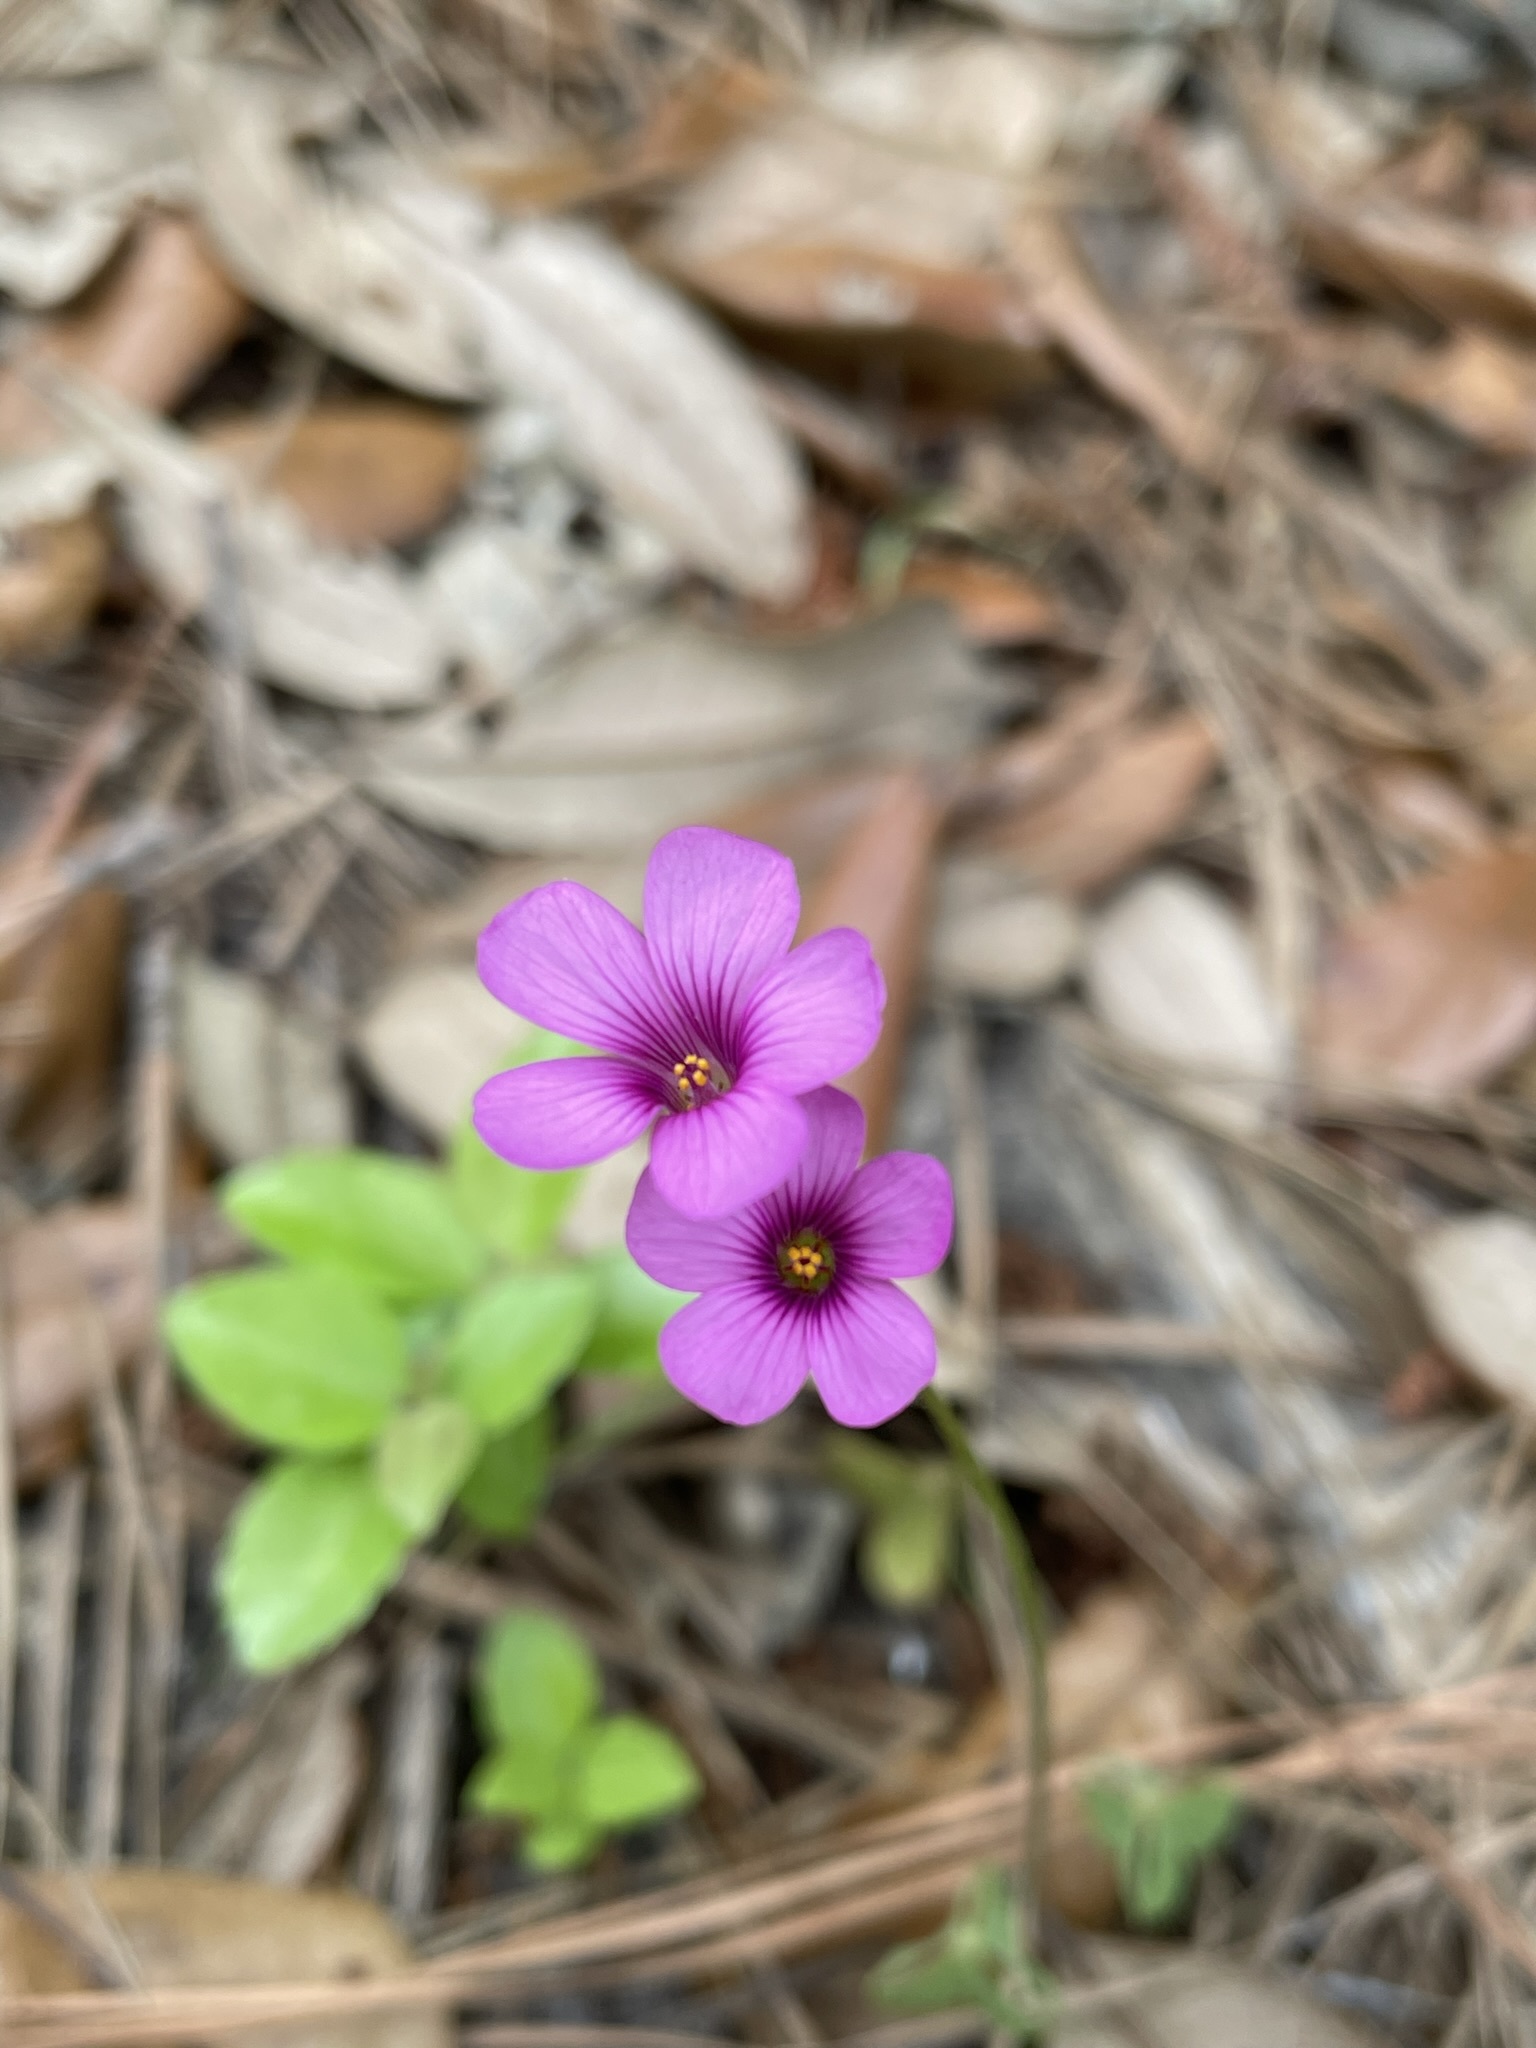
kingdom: Plantae
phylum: Tracheophyta
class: Magnoliopsida
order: Oxalidales
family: Oxalidaceae
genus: Oxalis
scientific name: Oxalis articulata
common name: Pink-sorrel
